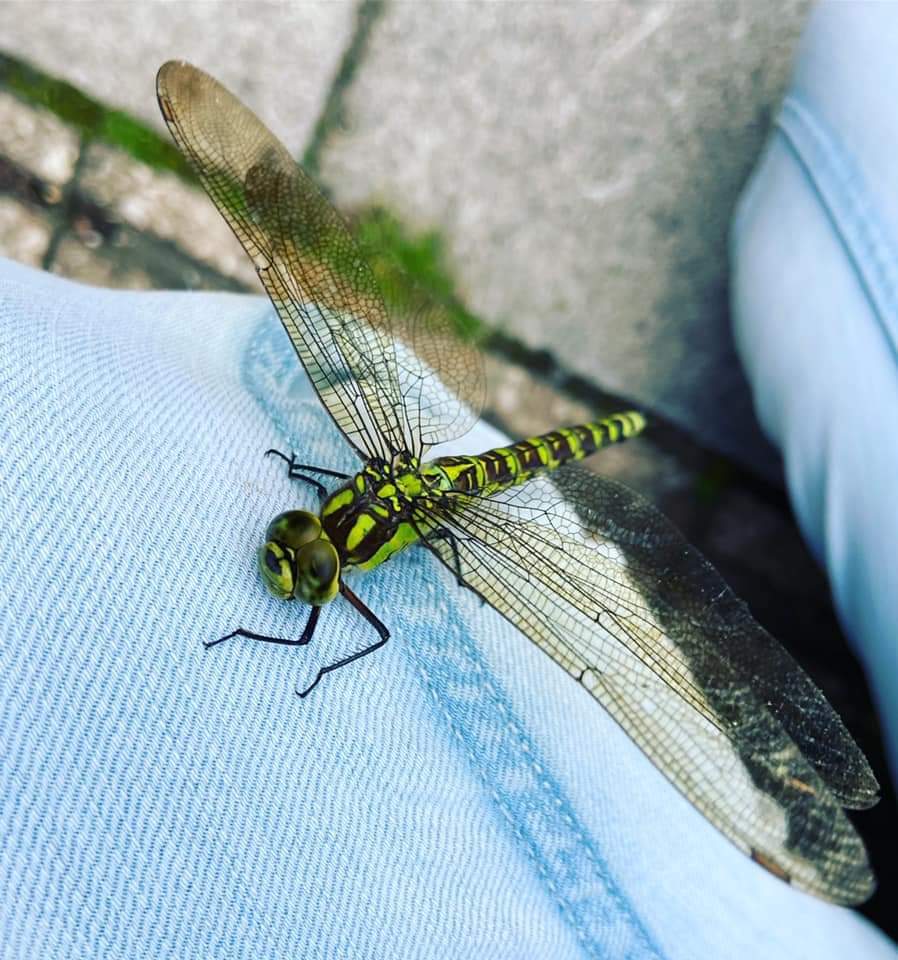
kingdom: Animalia
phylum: Arthropoda
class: Insecta
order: Odonata
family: Aeshnidae
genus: Aeshna
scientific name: Aeshna cyanea
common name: Southern hawker
